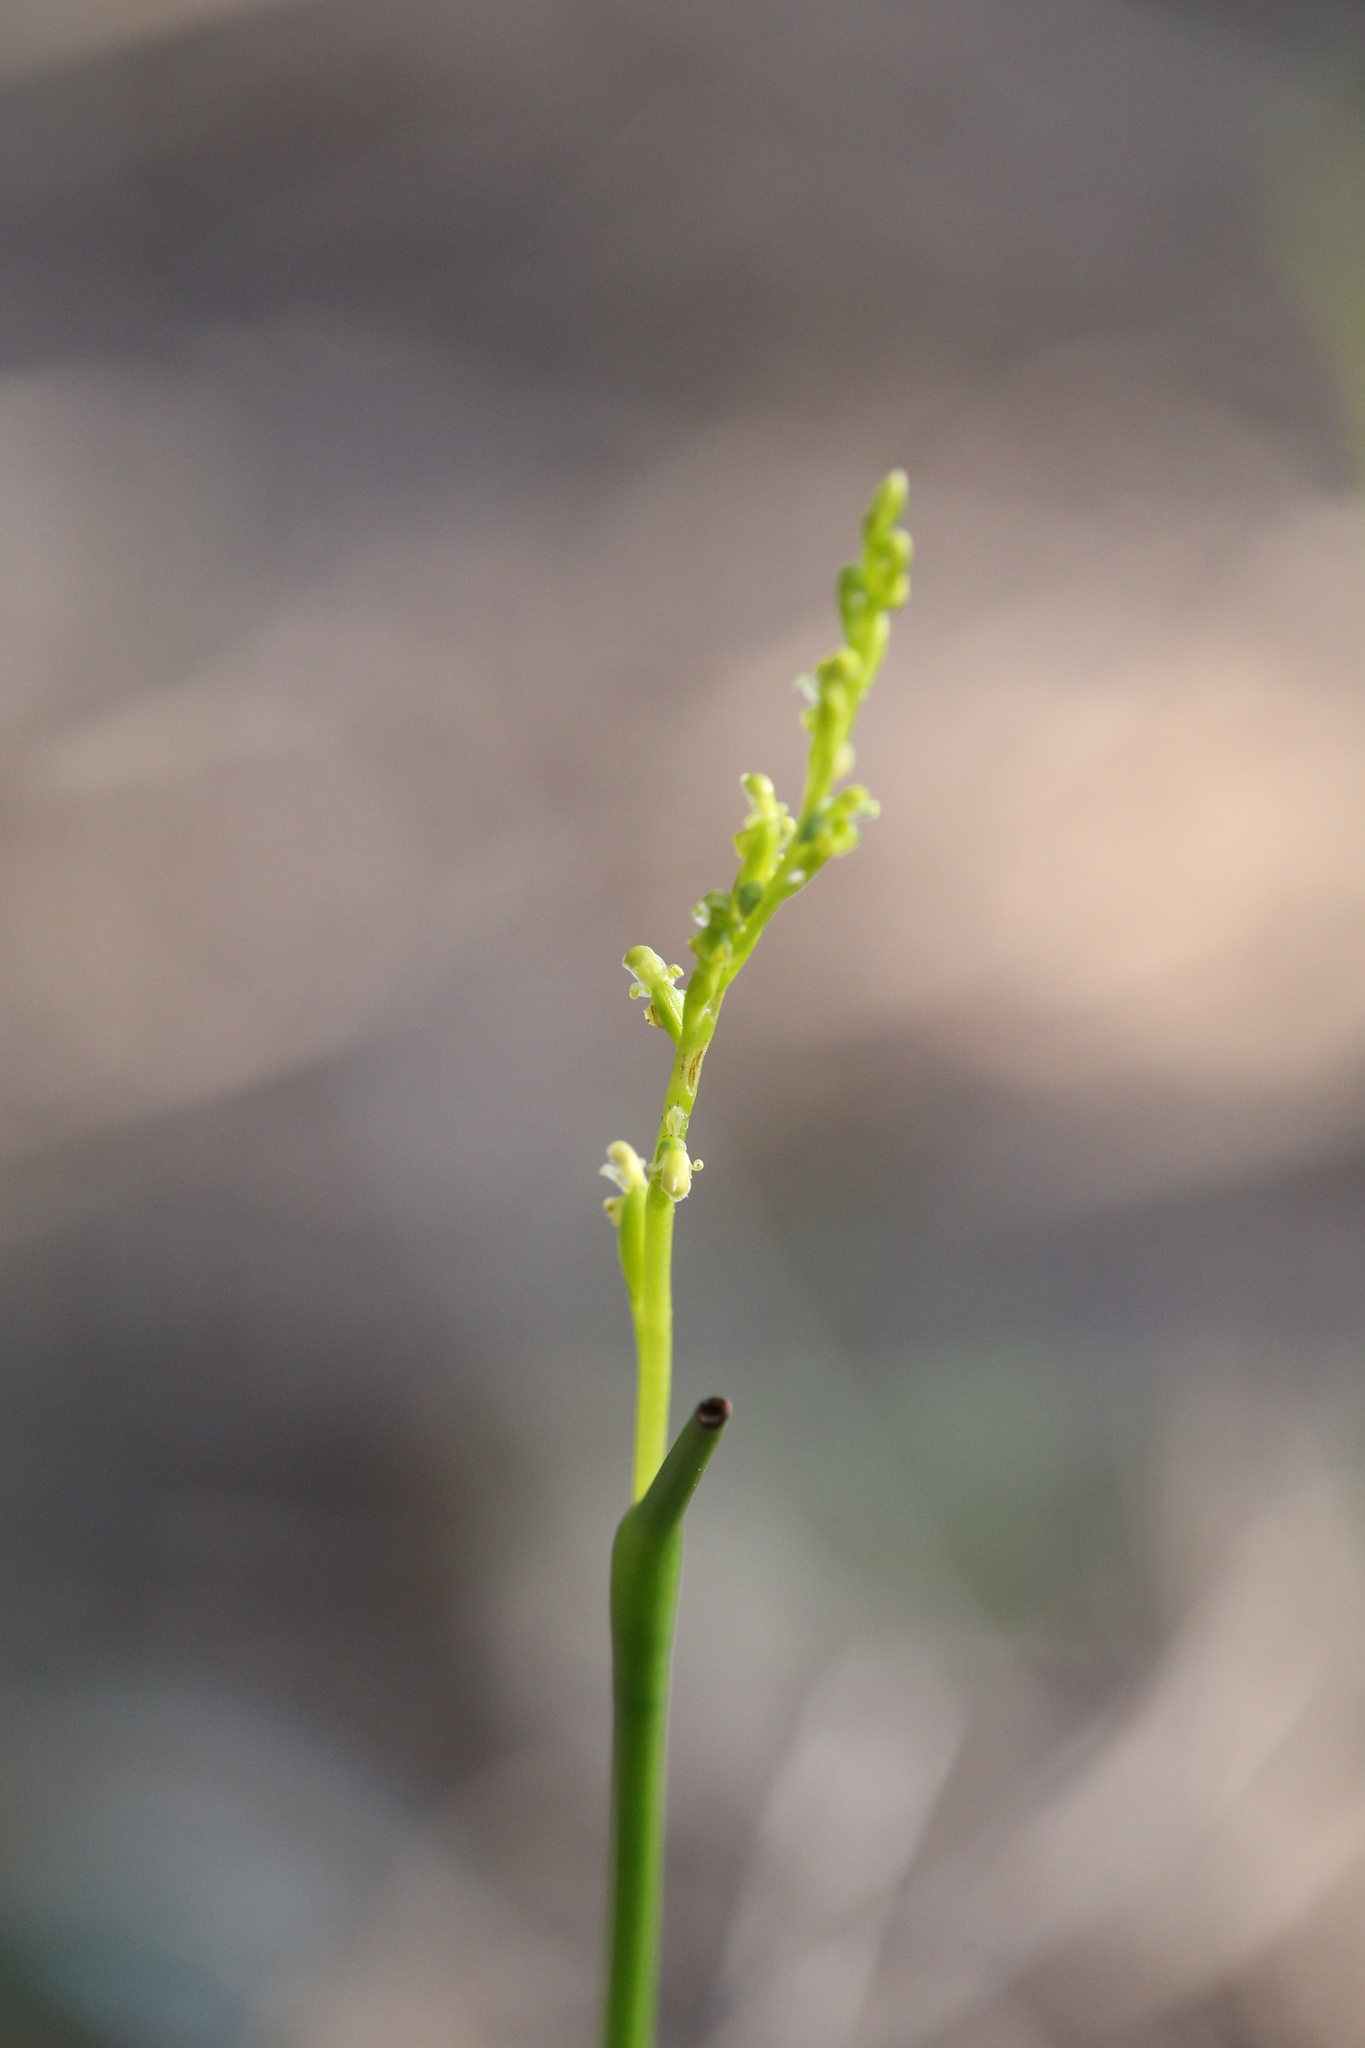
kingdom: Plantae
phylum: Tracheophyta
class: Liliopsida
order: Asparagales
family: Orchidaceae
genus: Microtis
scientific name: Microtis orbicularis
